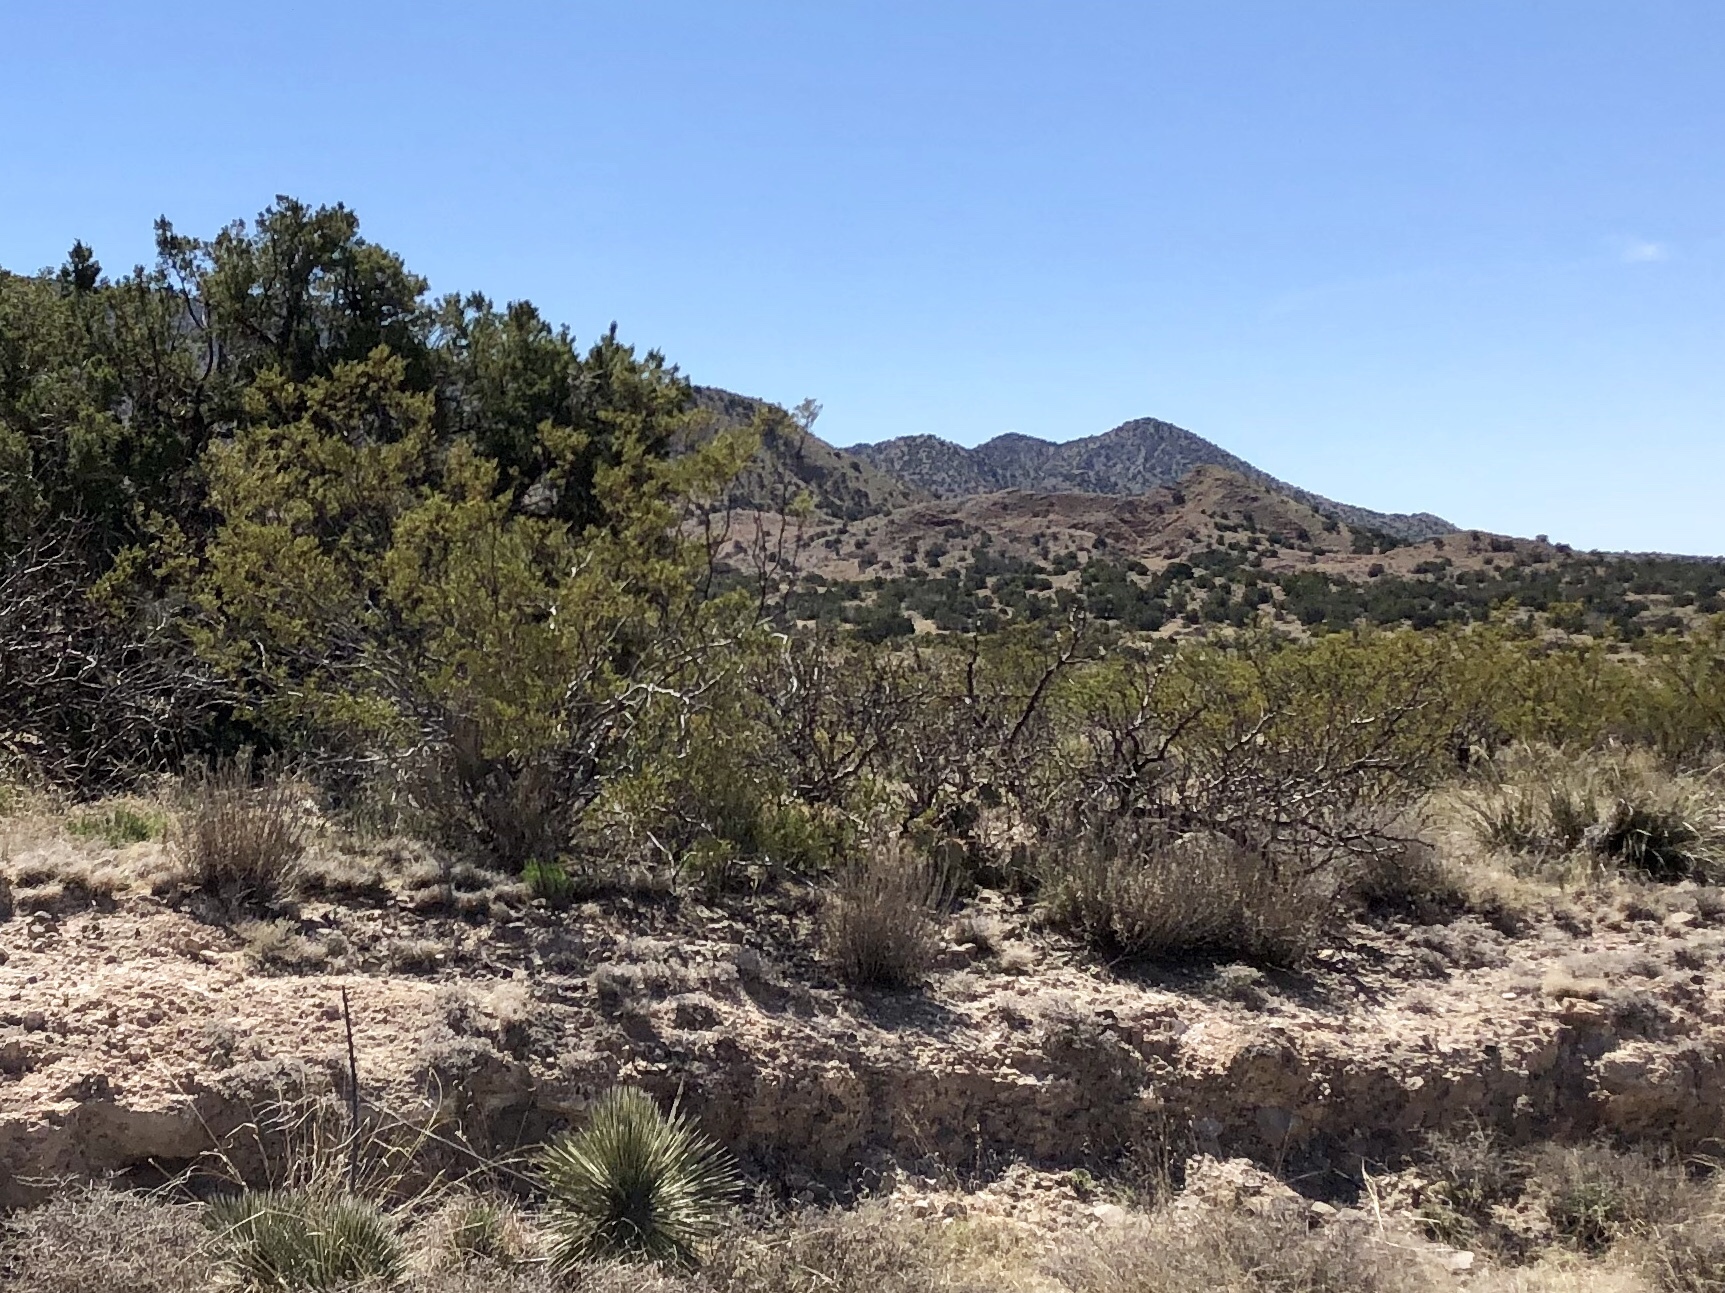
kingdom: Plantae
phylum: Tracheophyta
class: Magnoliopsida
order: Zygophyllales
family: Zygophyllaceae
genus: Larrea
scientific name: Larrea tridentata
